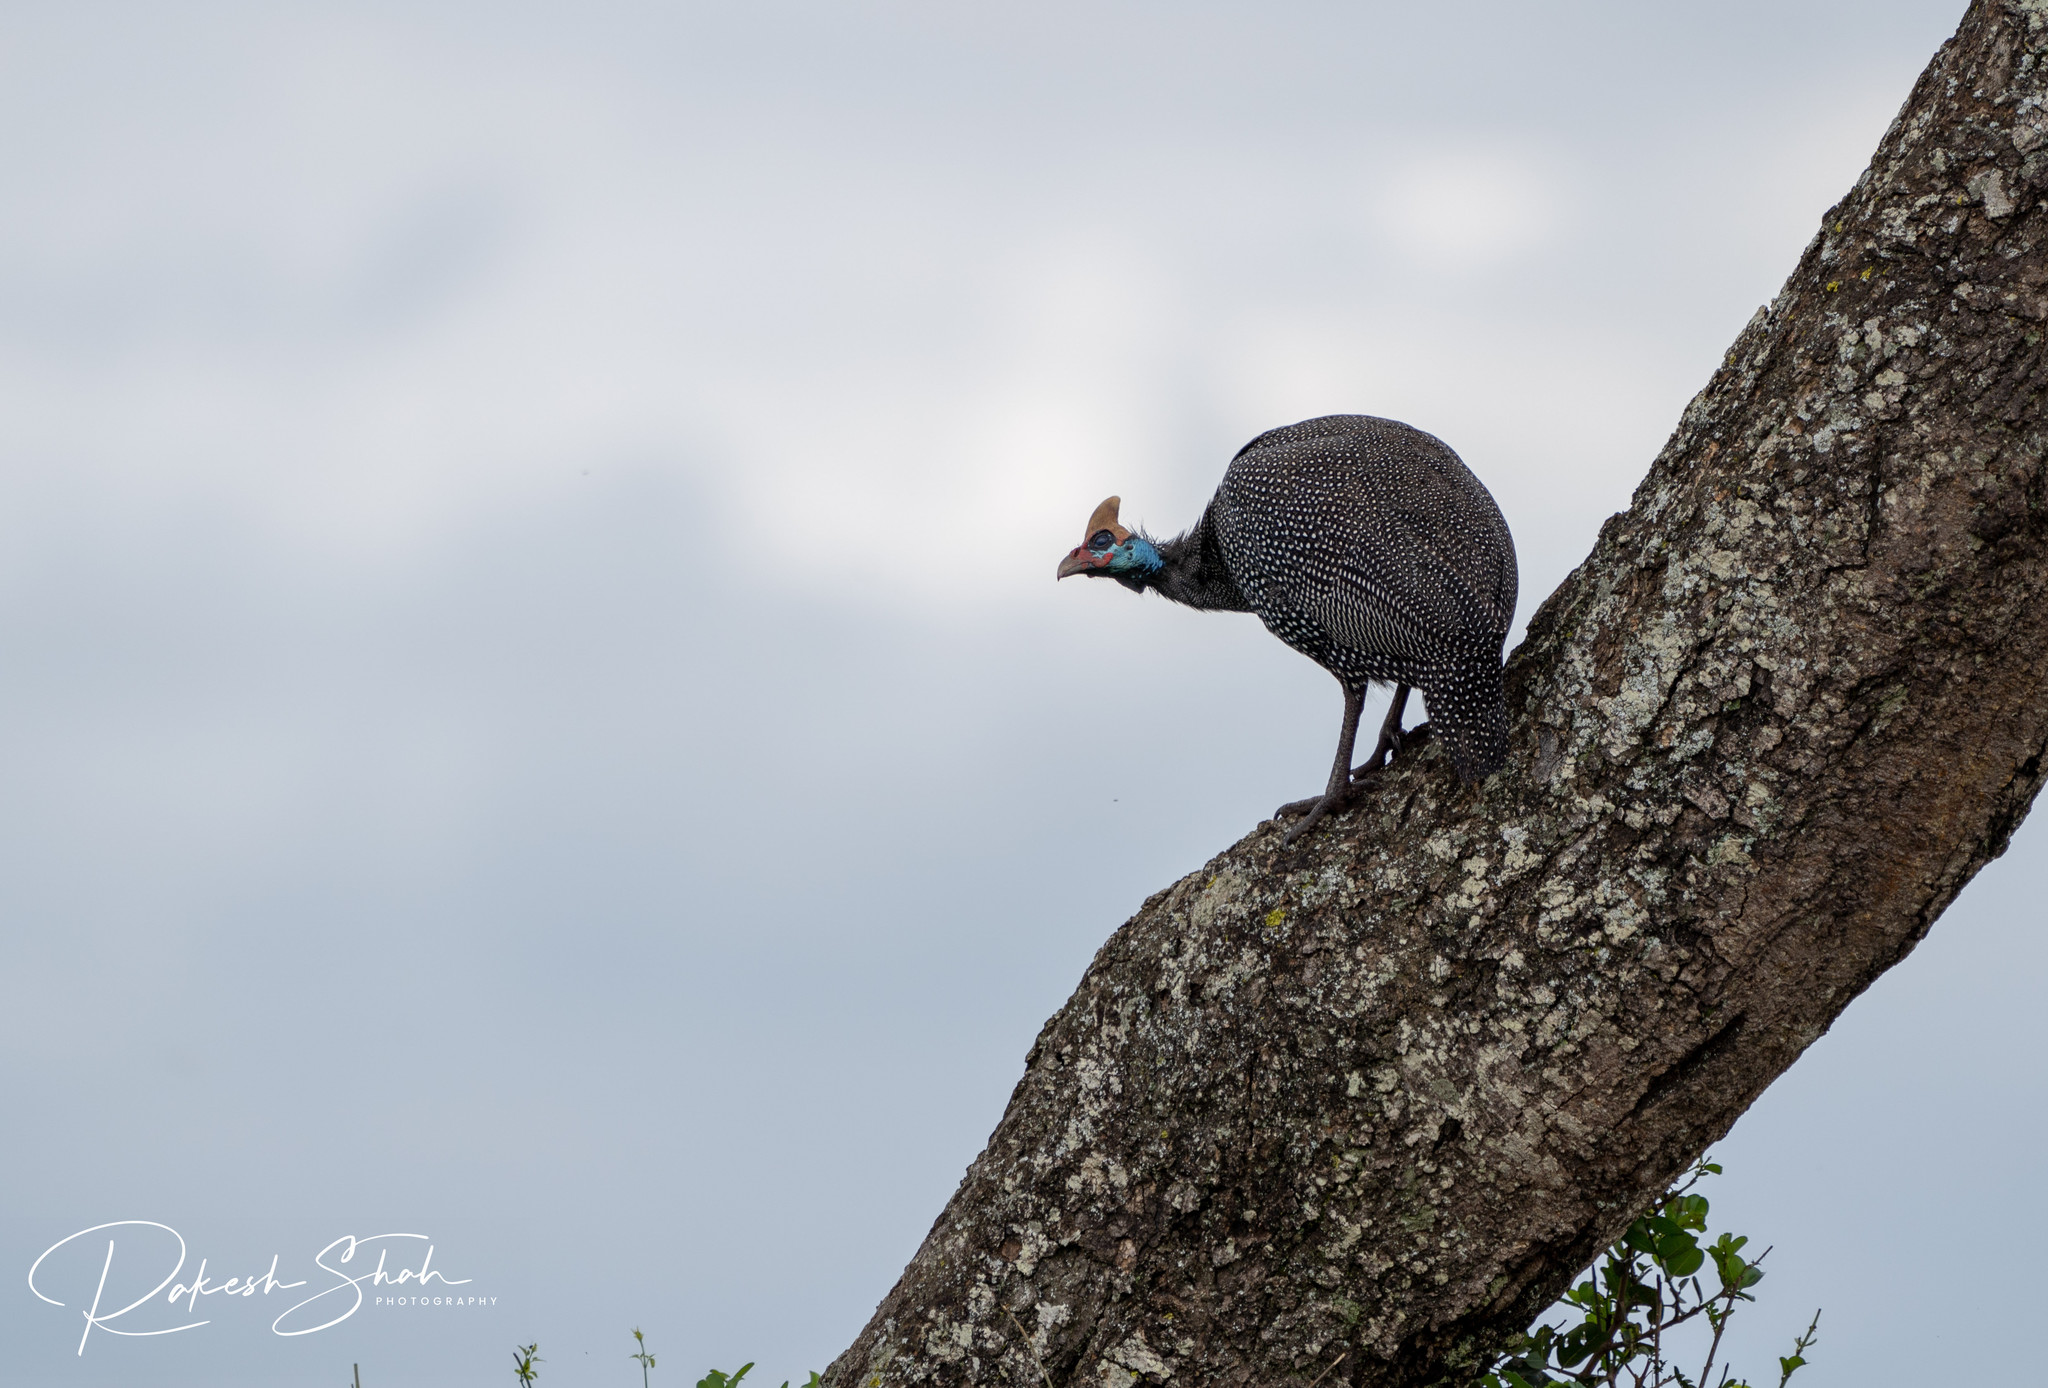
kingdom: Animalia
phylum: Chordata
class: Aves
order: Galliformes
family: Numididae
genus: Numida
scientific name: Numida meleagris
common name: Helmeted guineafowl
